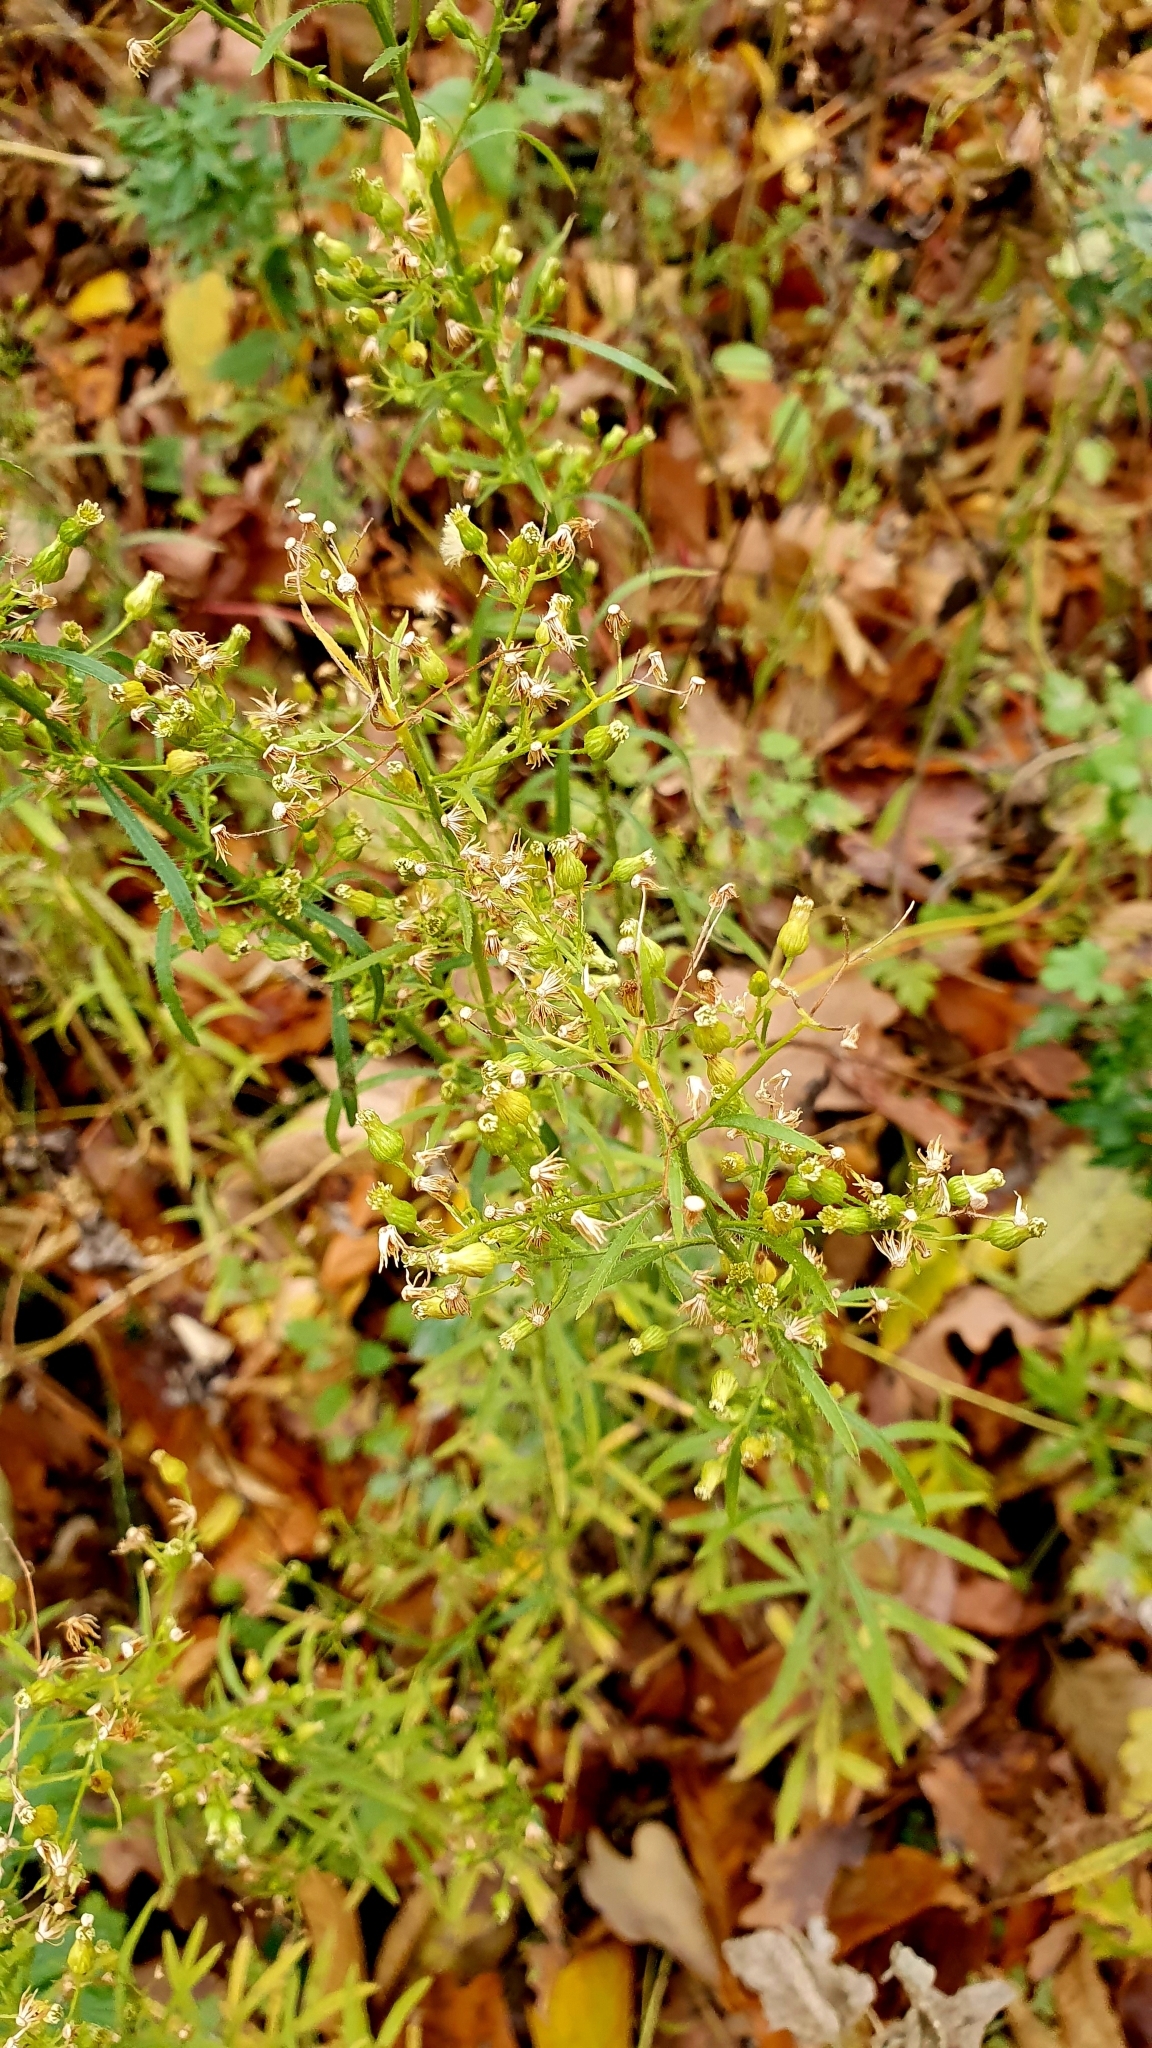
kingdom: Plantae
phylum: Tracheophyta
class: Magnoliopsida
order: Asterales
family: Asteraceae
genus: Erigeron
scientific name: Erigeron canadensis
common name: Canadian fleabane
